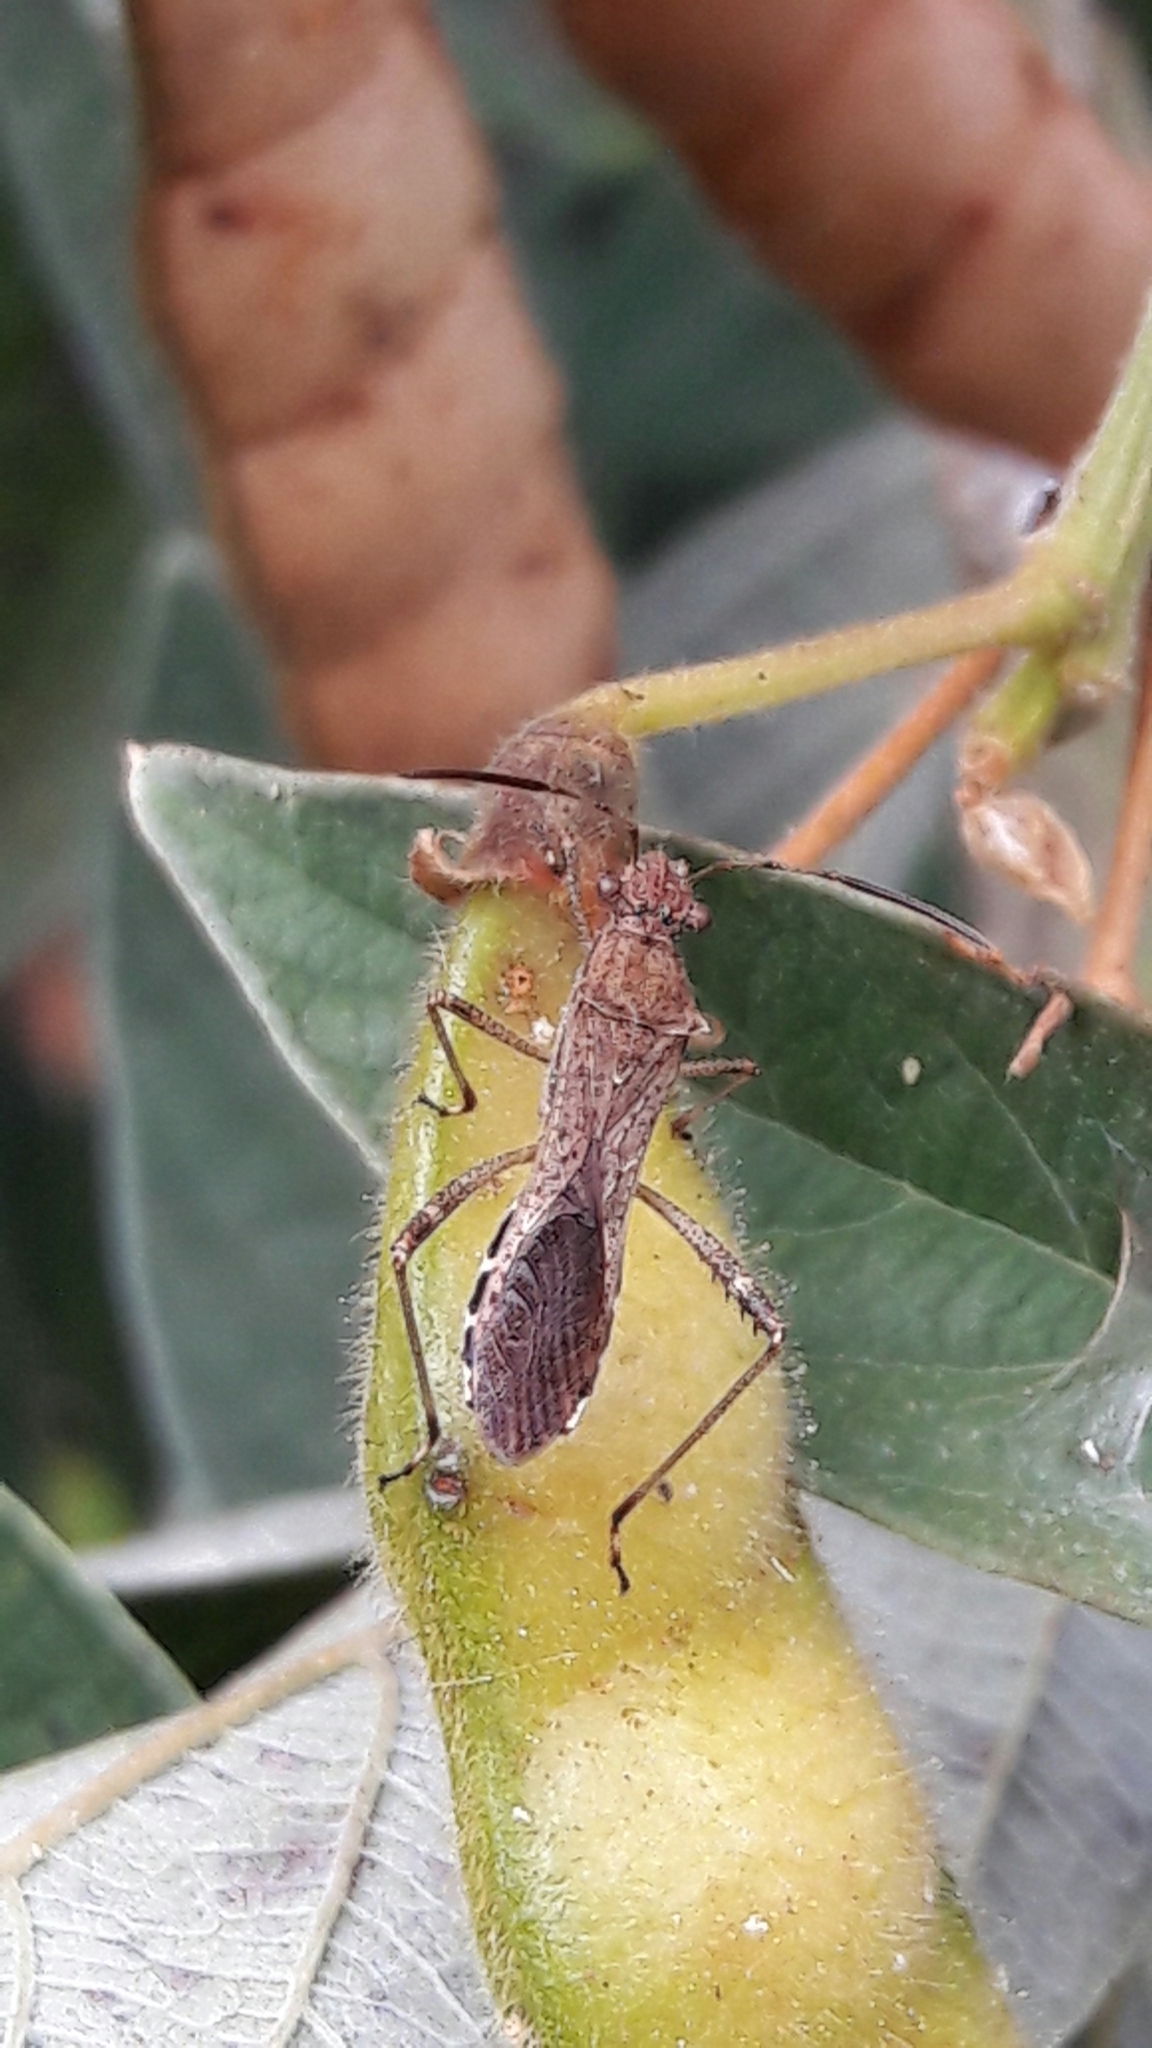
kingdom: Animalia
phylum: Arthropoda
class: Insecta
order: Hemiptera
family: Alydidae
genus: Neomegalotomus
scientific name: Neomegalotomus parvus
